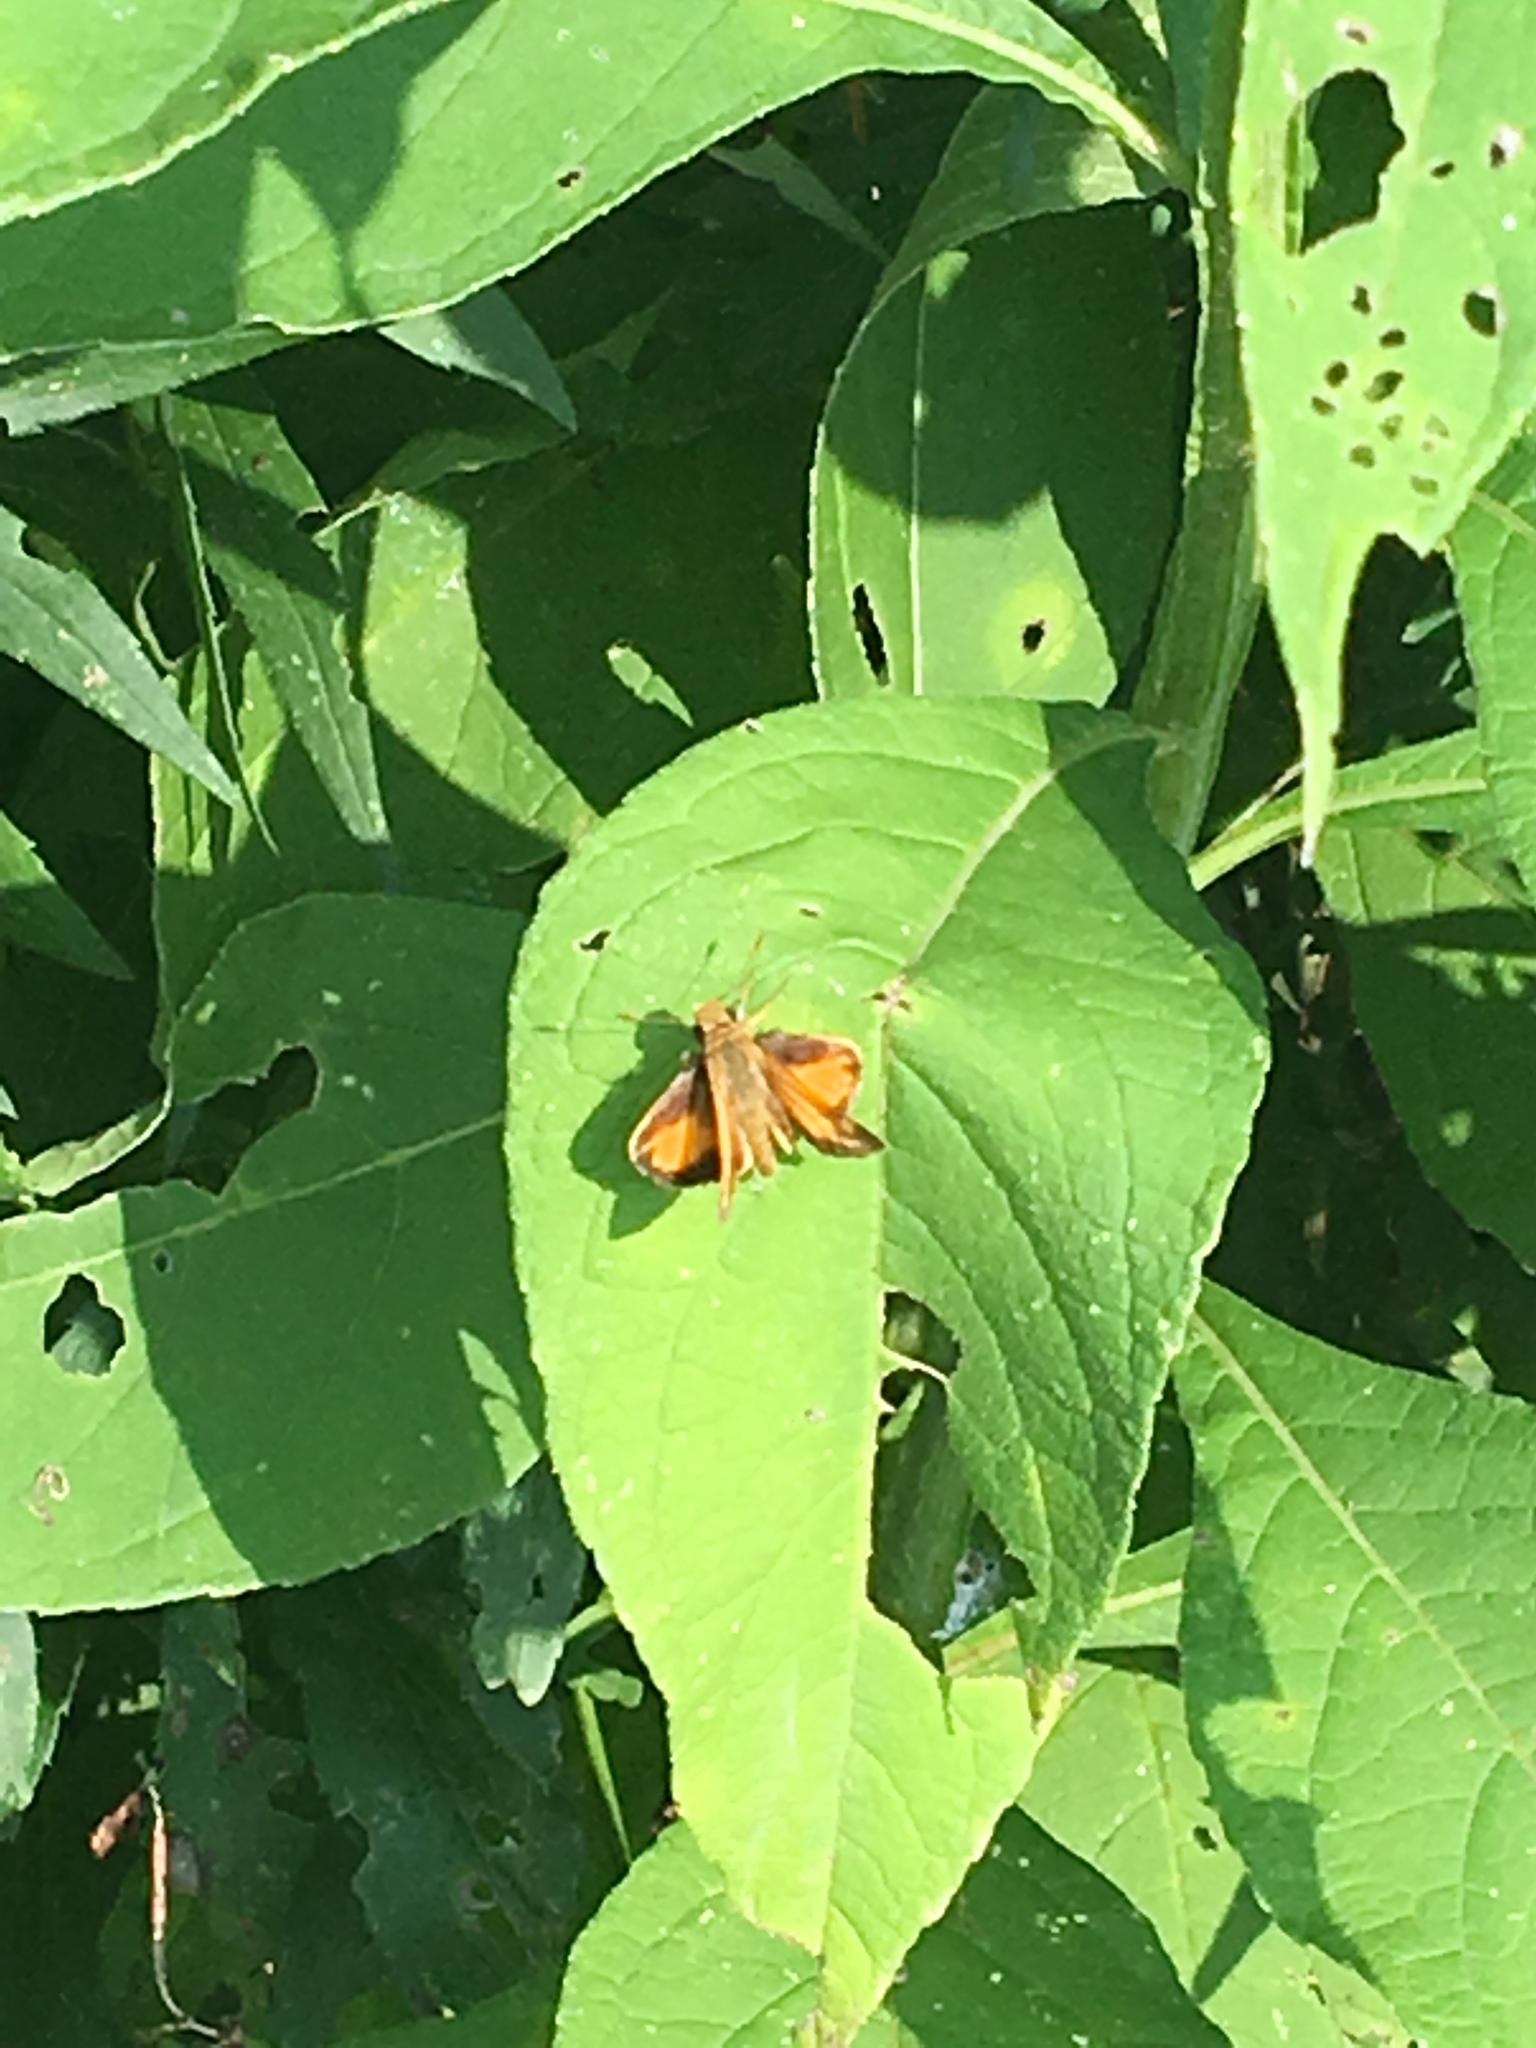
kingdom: Animalia
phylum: Arthropoda
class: Insecta
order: Lepidoptera
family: Hesperiidae
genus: Lon
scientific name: Lon zabulon
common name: Zabulon skipper
